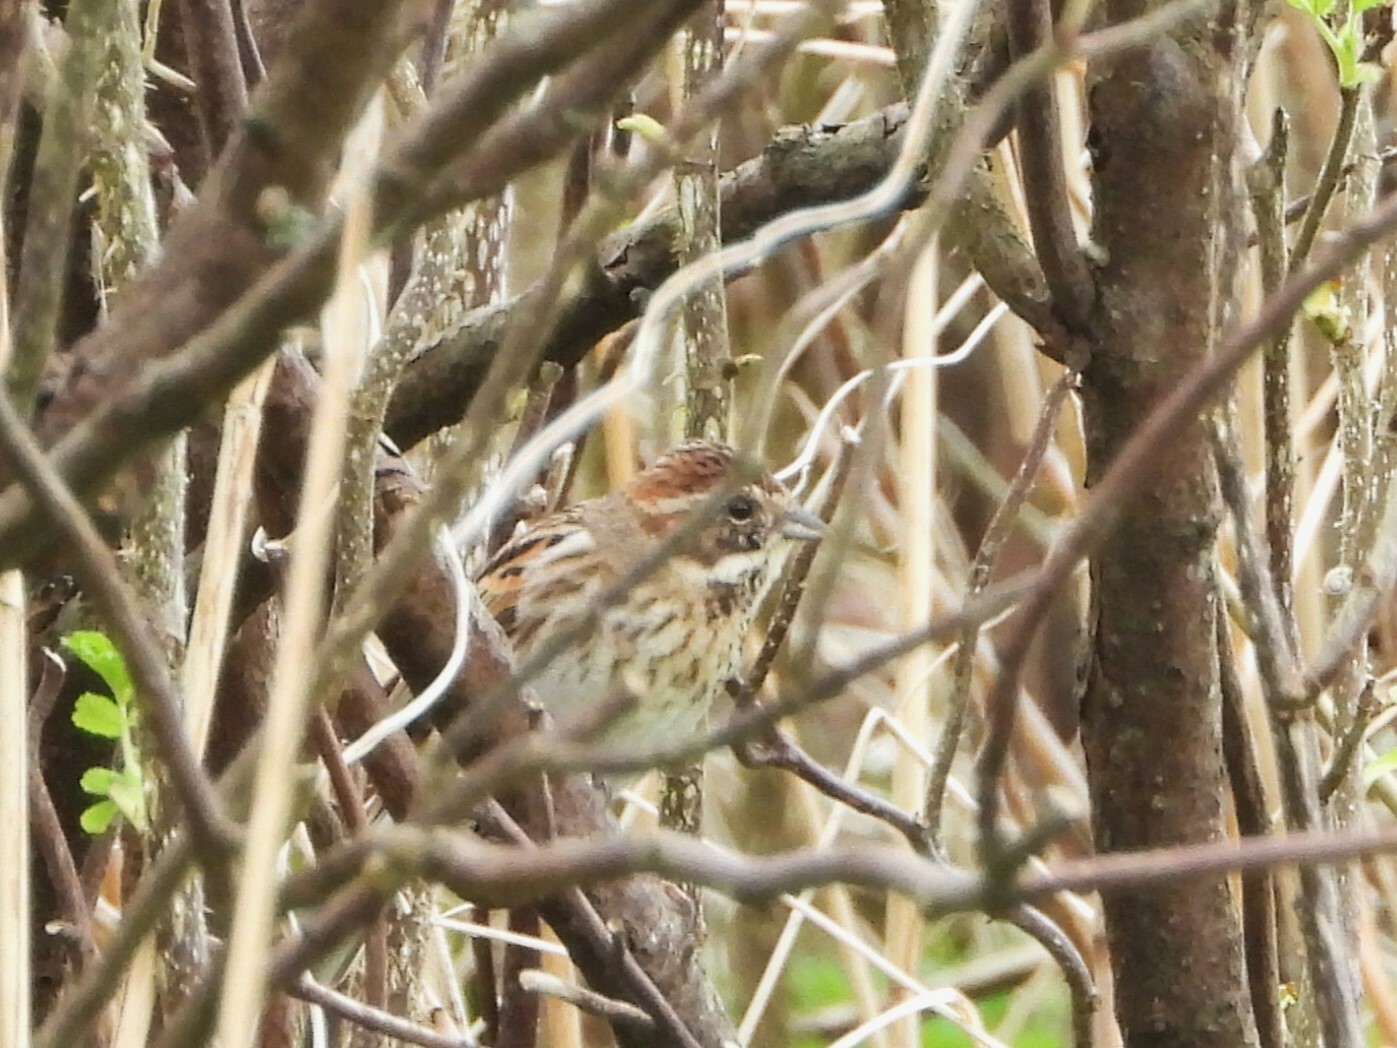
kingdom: Animalia
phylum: Chordata
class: Aves
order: Passeriformes
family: Emberizidae
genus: Emberiza
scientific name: Emberiza schoeniclus
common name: Reed bunting
